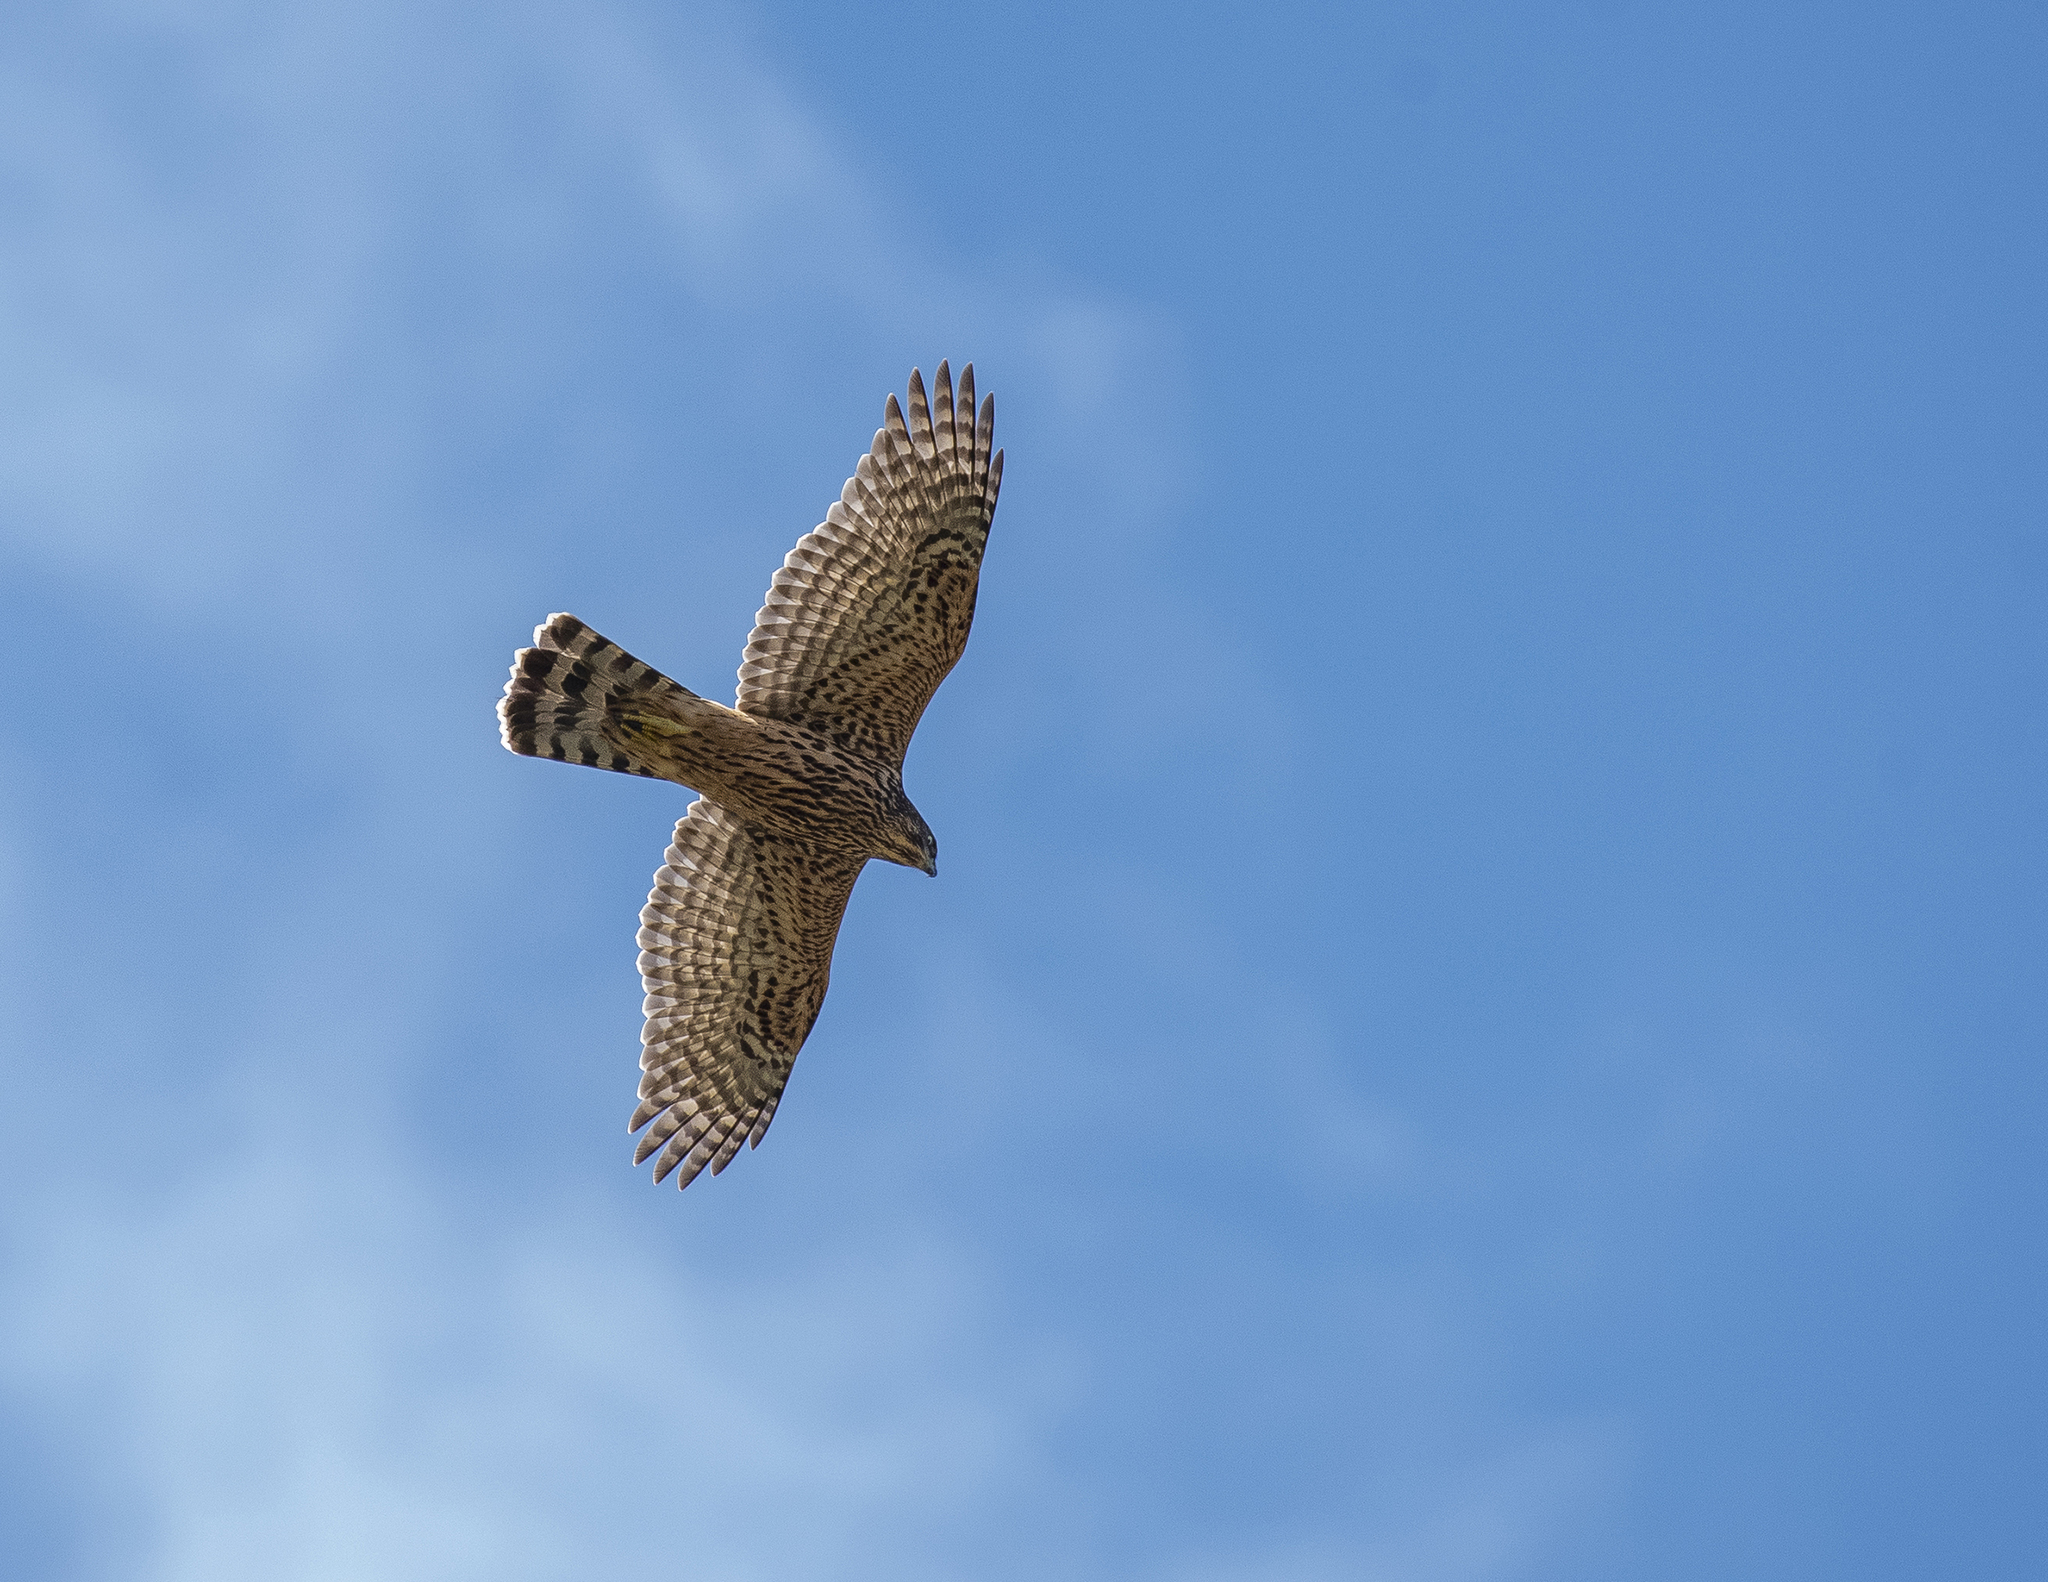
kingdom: Animalia
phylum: Chordata
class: Aves
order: Accipitriformes
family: Accipitridae
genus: Accipiter
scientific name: Accipiter gentilis
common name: Northern goshawk
